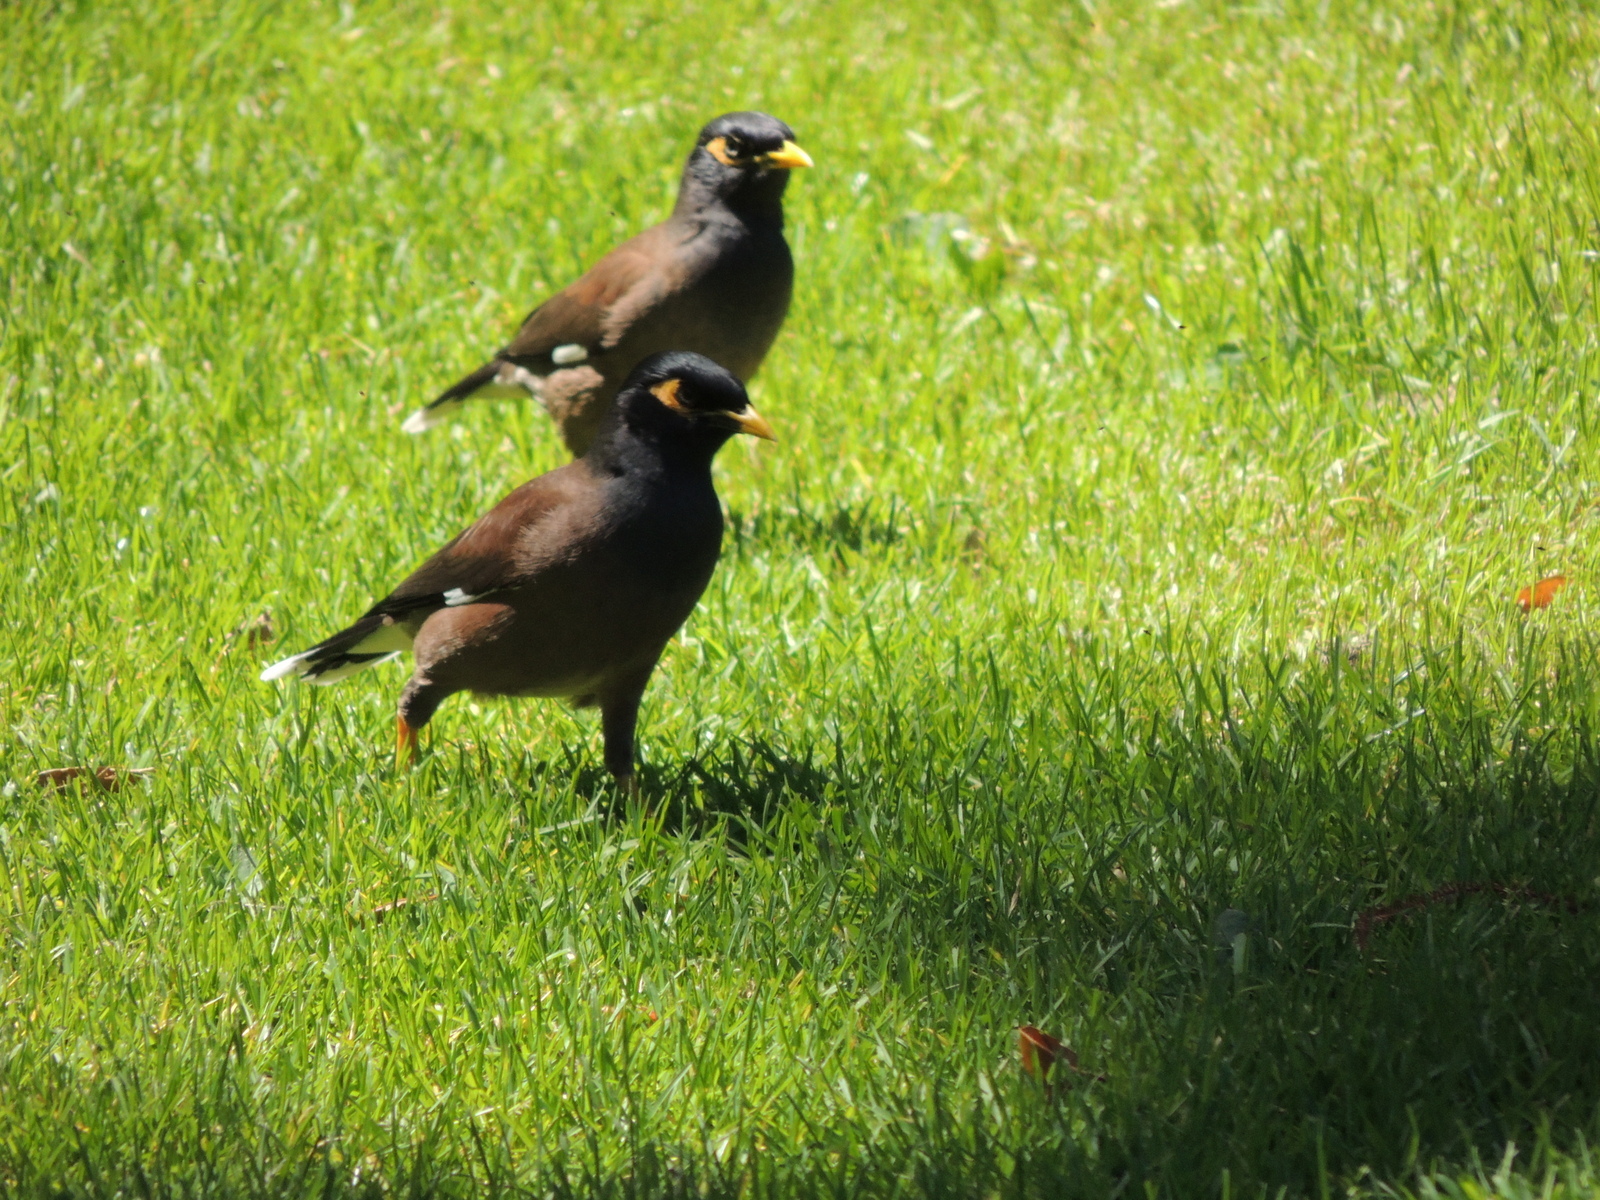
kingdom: Animalia
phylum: Chordata
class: Aves
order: Passeriformes
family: Sturnidae
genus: Acridotheres
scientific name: Acridotheres tristis
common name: Common myna
